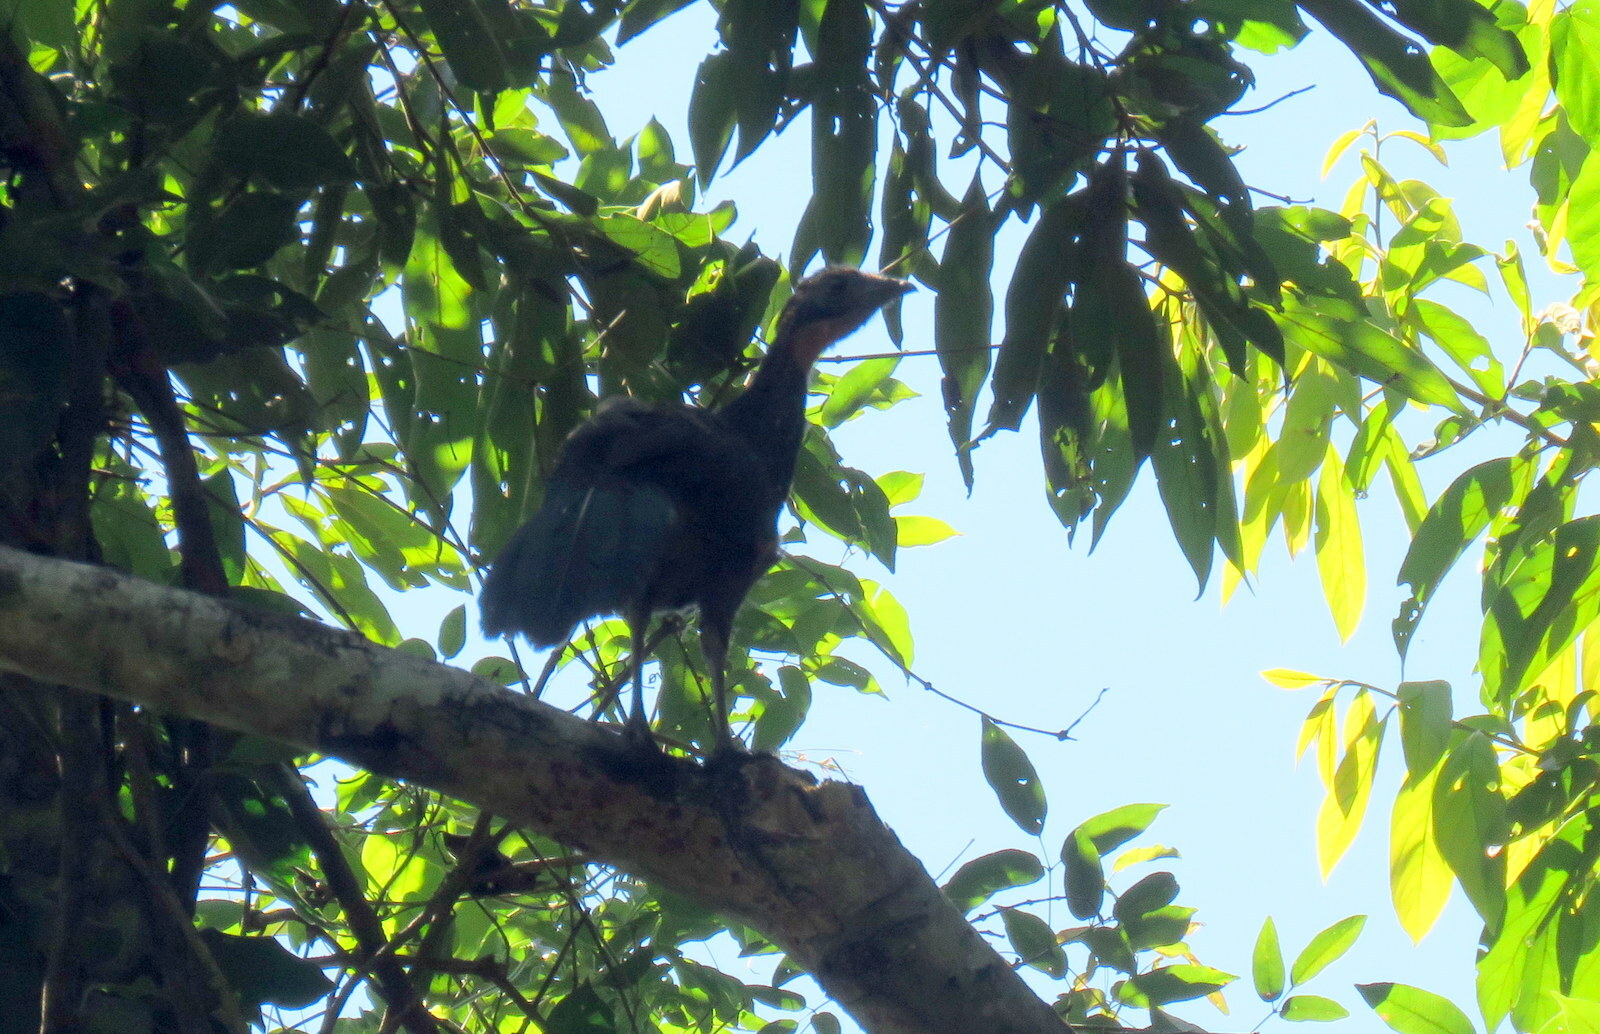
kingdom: Animalia
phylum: Chordata
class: Aves
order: Galliformes
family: Cracidae
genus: Penelope
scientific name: Penelope superciliaris
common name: Rusty-margined guan
